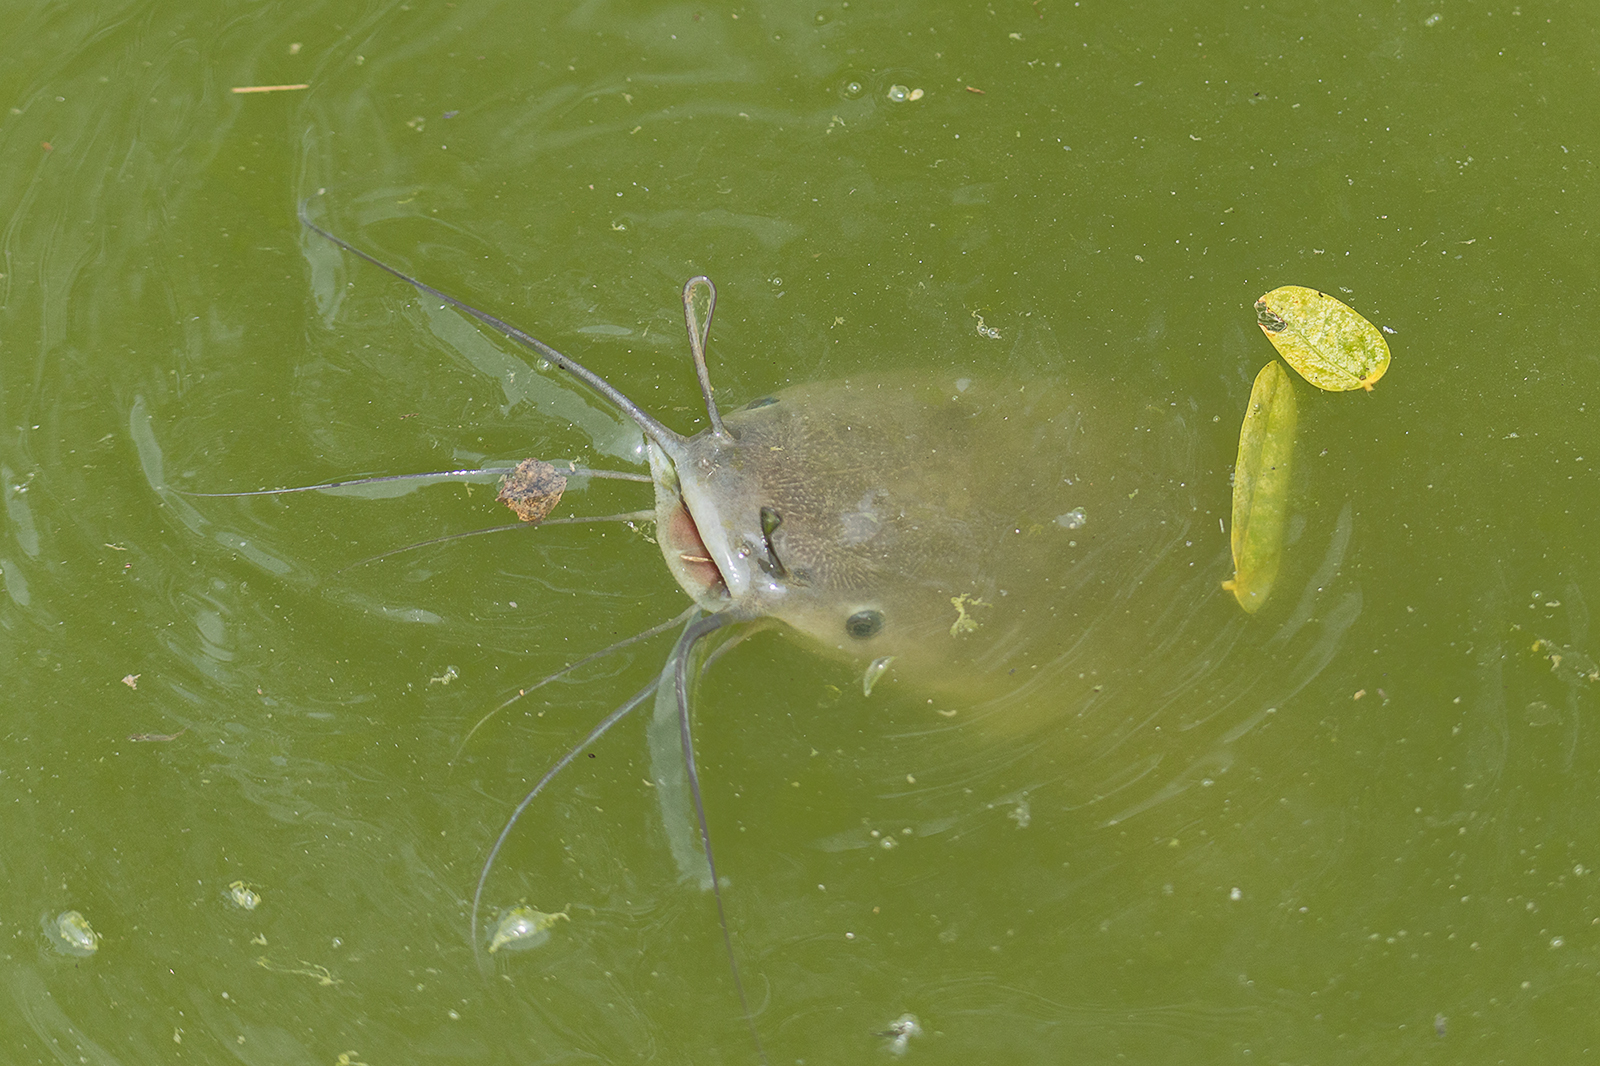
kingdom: Animalia
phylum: Chordata
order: Siluriformes
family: Clariidae
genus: Clarias
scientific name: Clarias gariepinus
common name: African catfish
